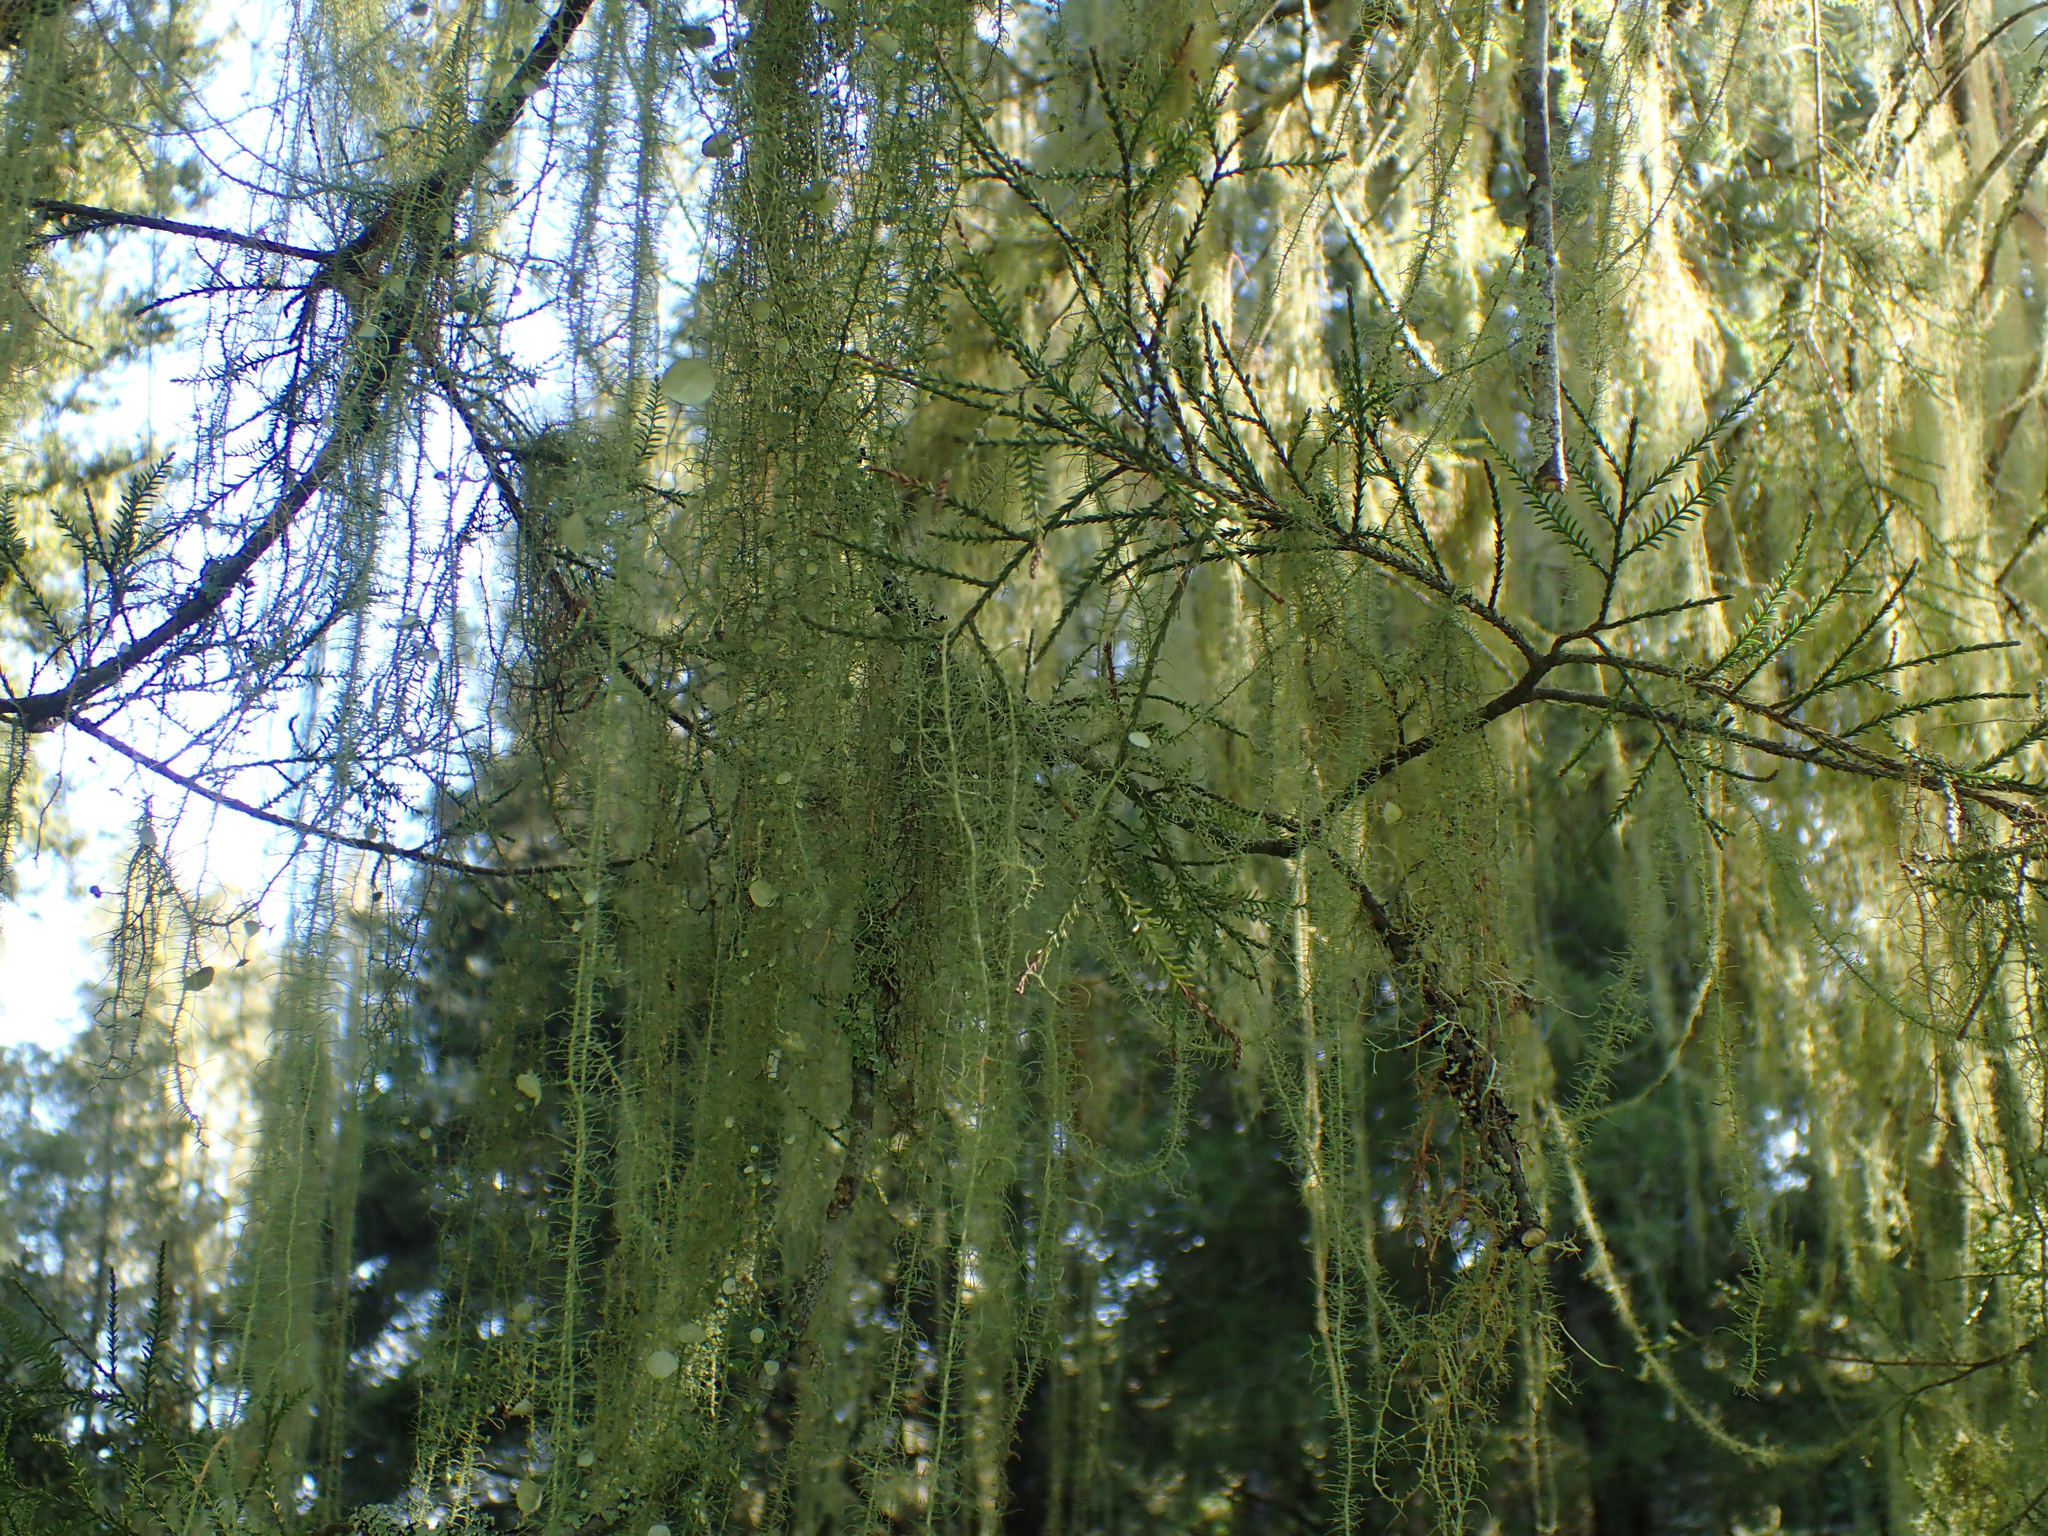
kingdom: Fungi
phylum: Ascomycota
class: Lecanoromycetes
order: Lecanorales
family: Parmeliaceae
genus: Usnea
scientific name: Usnea angulata
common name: Old-man’s beard lichen
